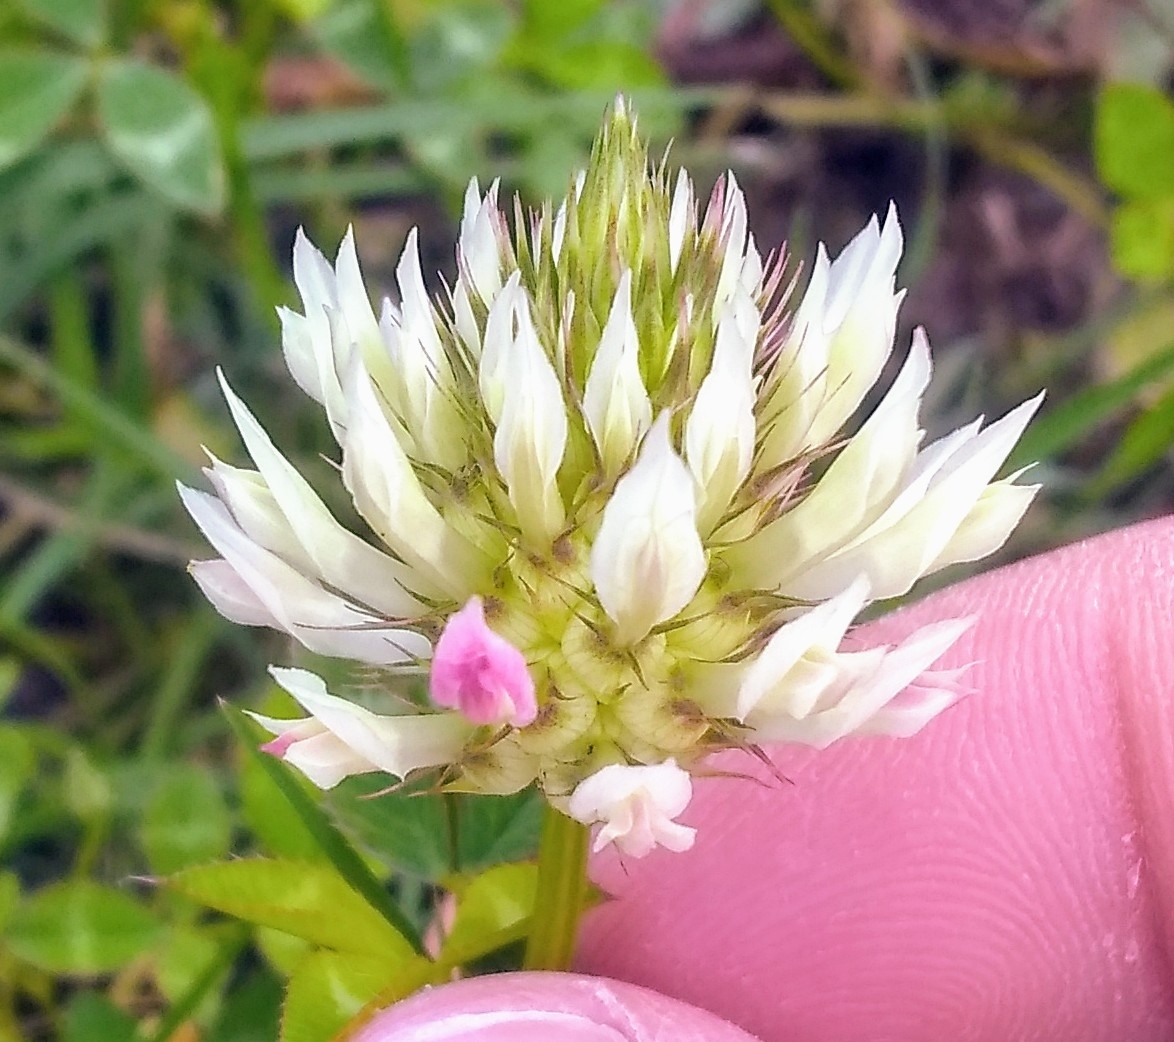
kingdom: Plantae
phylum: Tracheophyta
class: Magnoliopsida
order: Fabales
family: Fabaceae
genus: Trifolium
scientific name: Trifolium vesiculosum
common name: Arrowleaf clover
